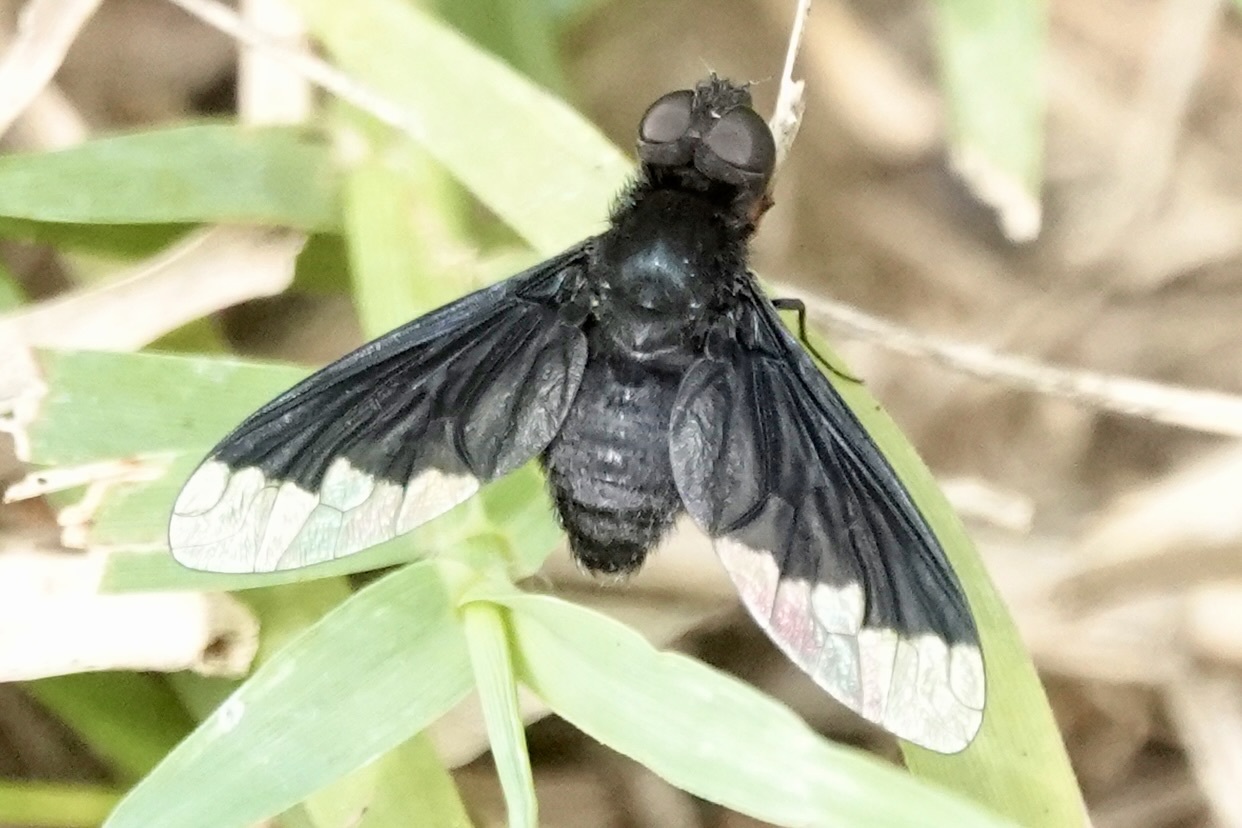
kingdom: Animalia
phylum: Arthropoda
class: Insecta
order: Diptera
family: Bombyliidae
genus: Anthrax
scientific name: Anthrax analis
